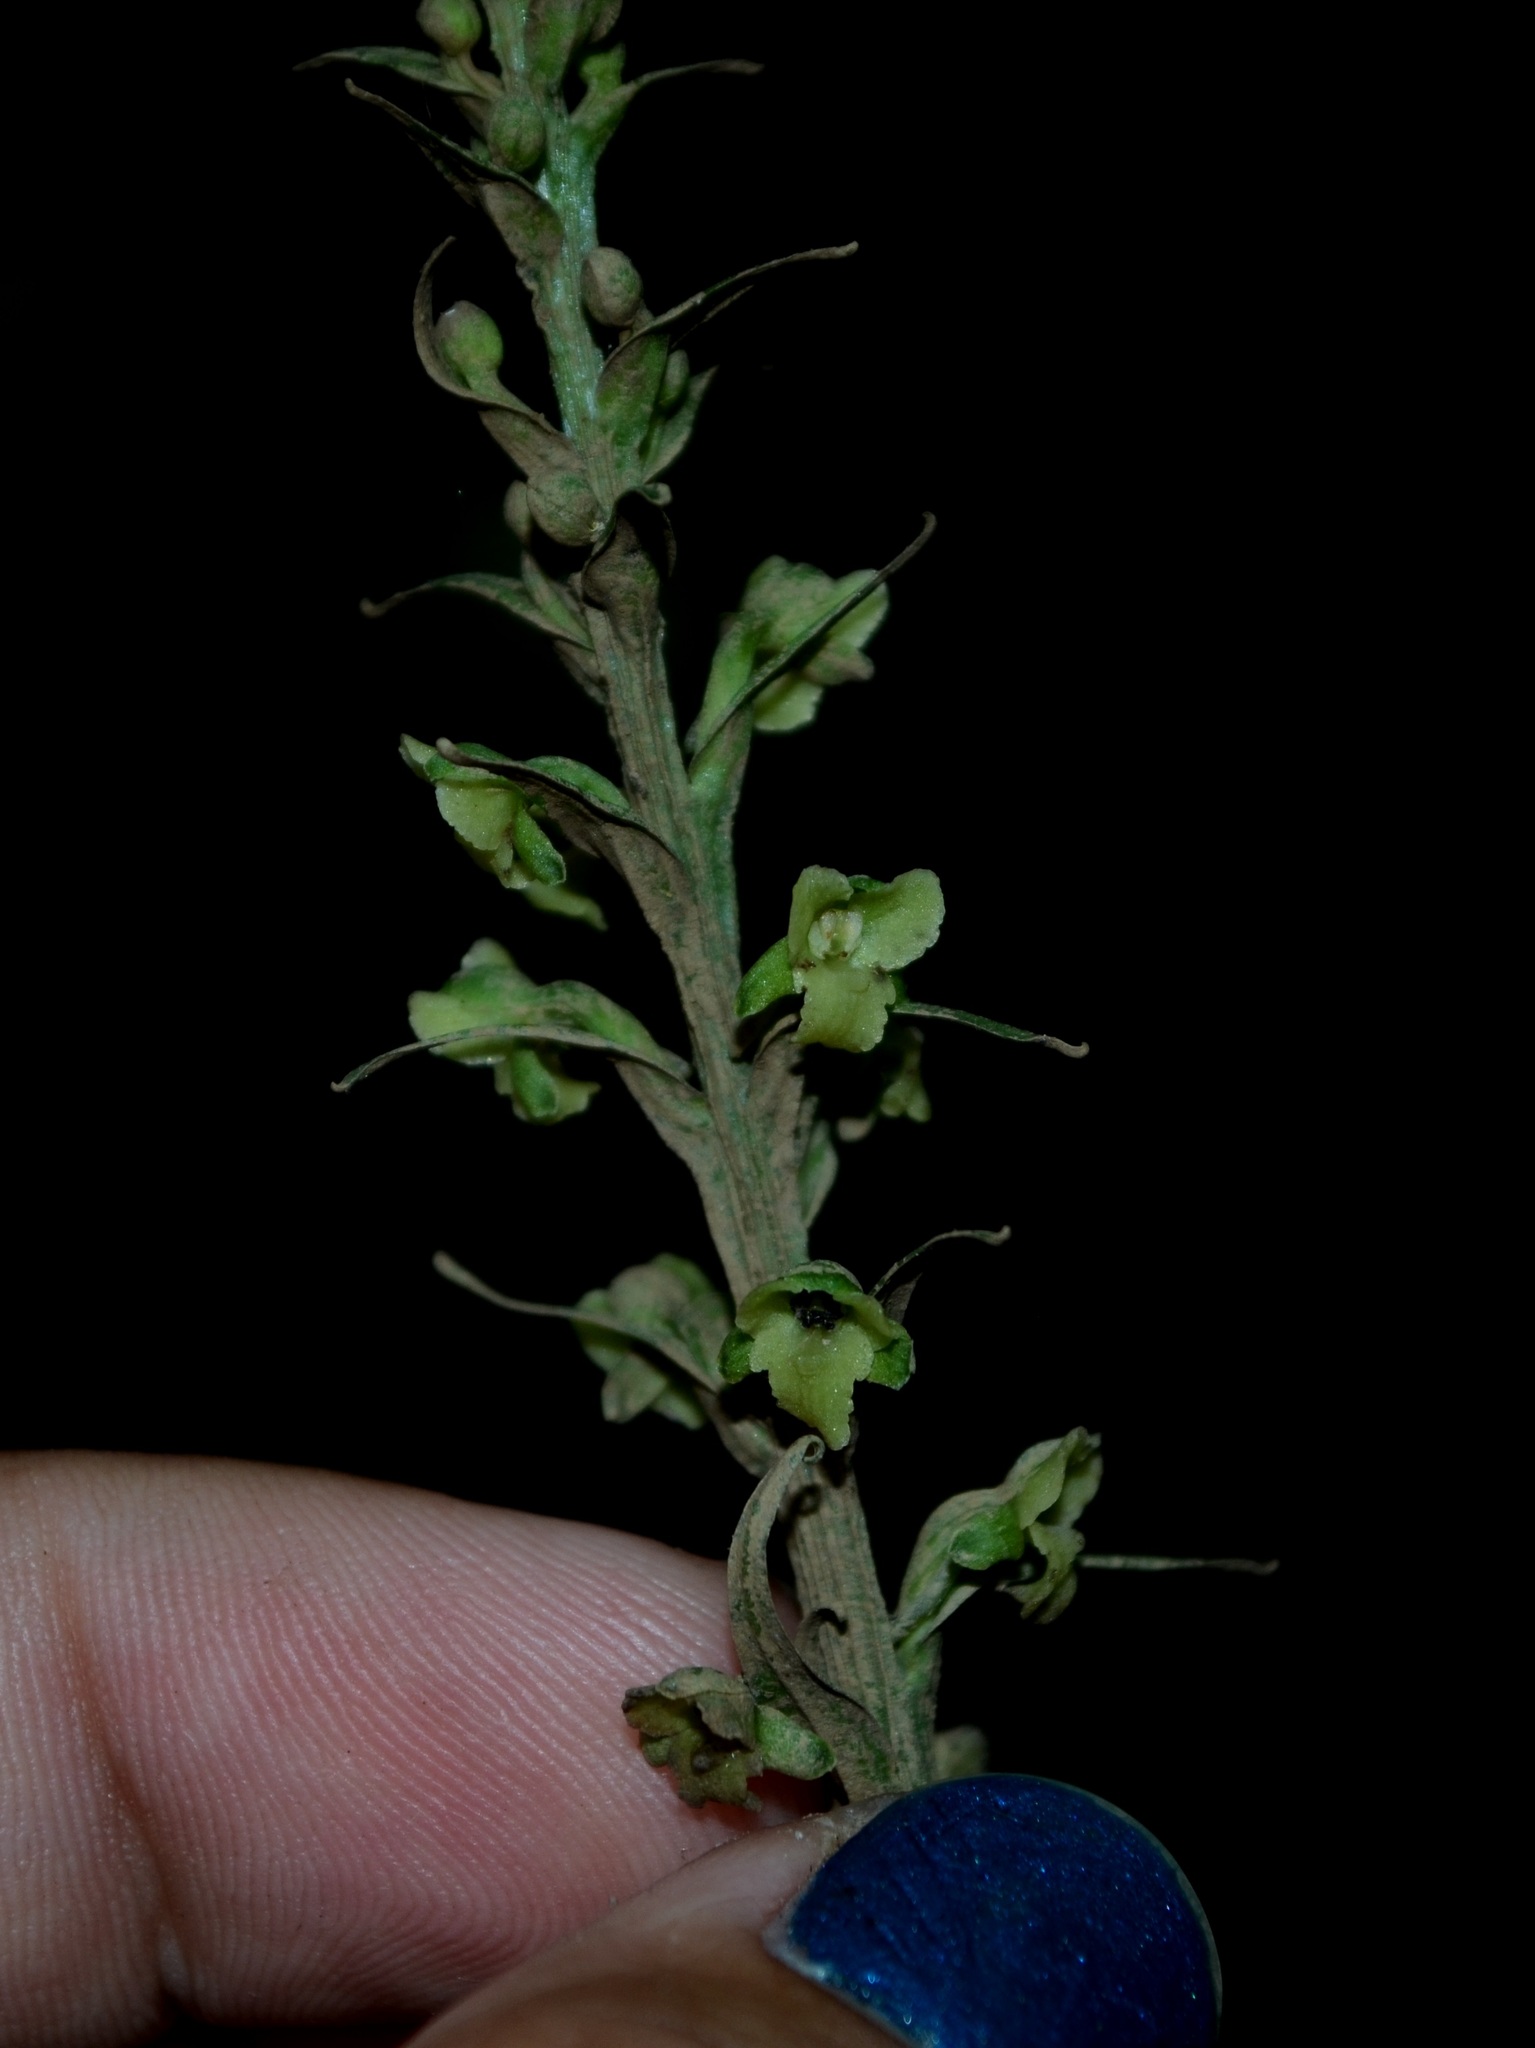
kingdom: Plantae
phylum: Tracheophyta
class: Liliopsida
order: Asparagales
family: Orchidaceae
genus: Platanthera
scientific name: Platanthera flava
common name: Gypsy-spikes
